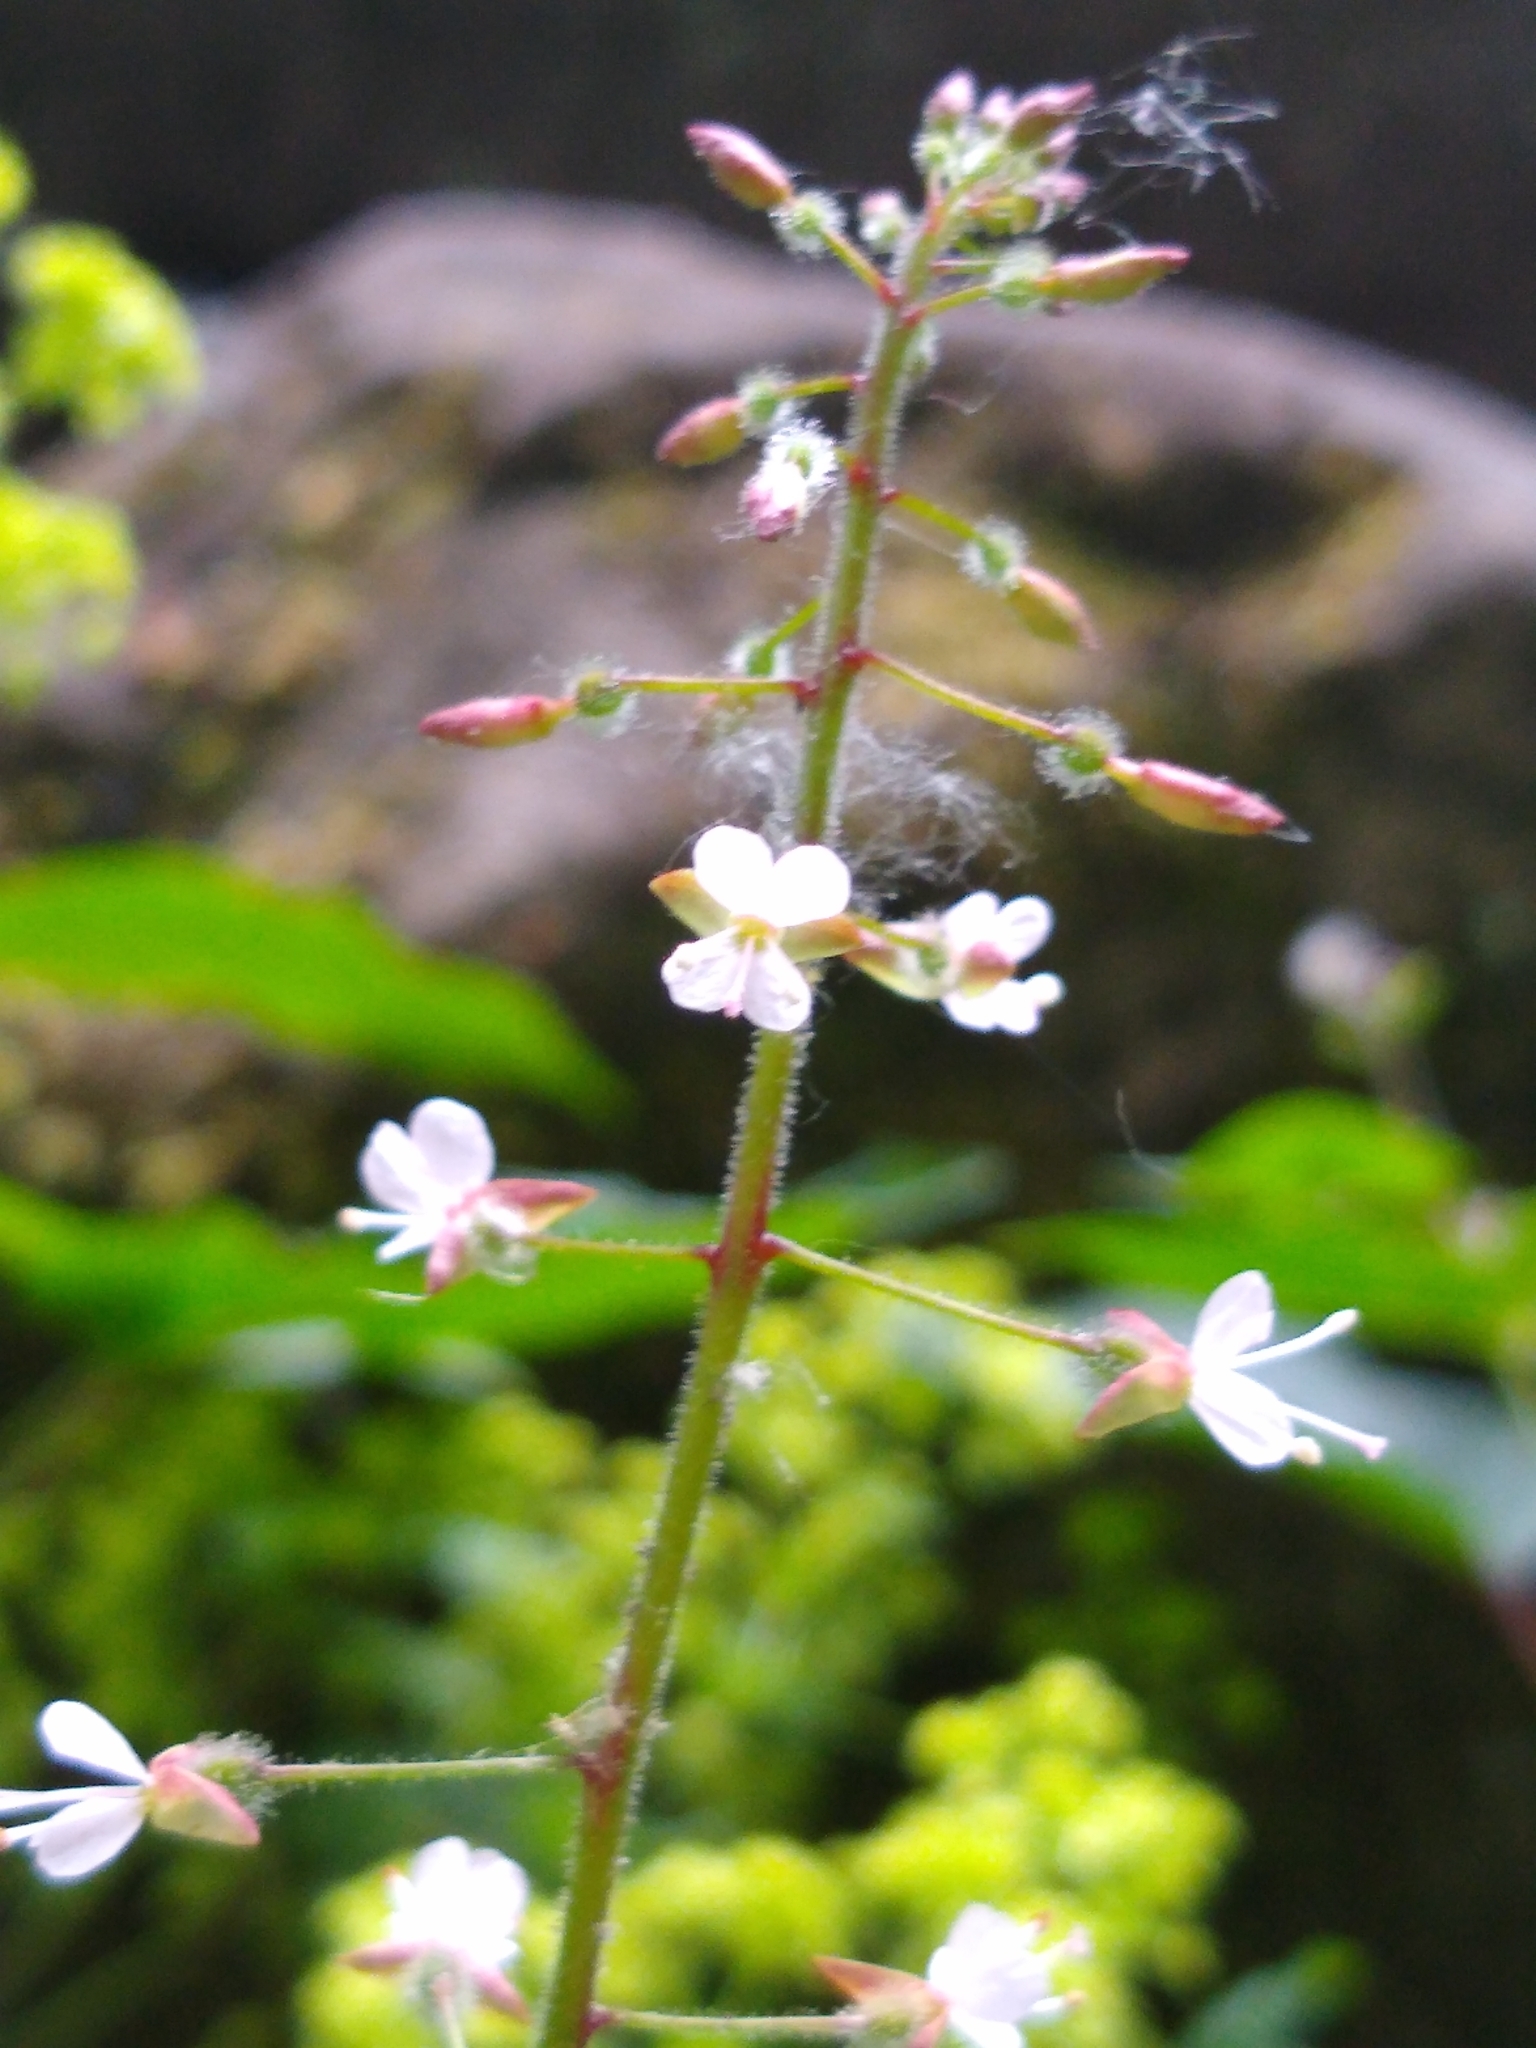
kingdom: Plantae
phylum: Tracheophyta
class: Magnoliopsida
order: Myrtales
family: Onagraceae
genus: Circaea
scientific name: Circaea lutetiana
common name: Enchanter's-nightshade
